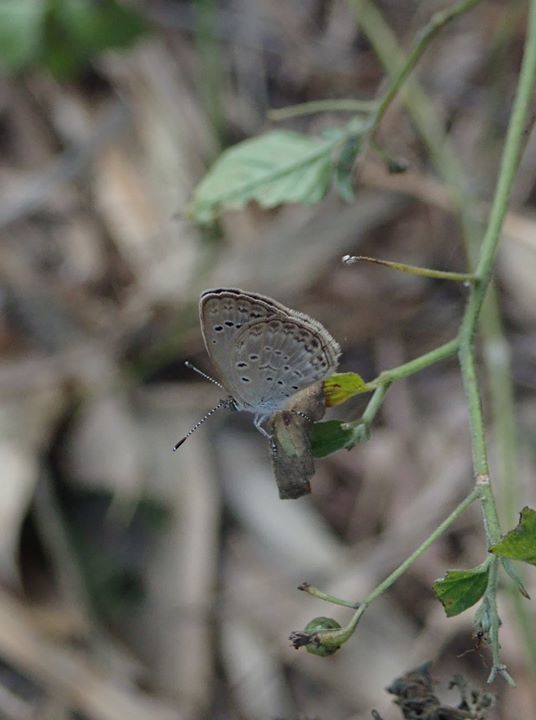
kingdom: Animalia
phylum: Arthropoda
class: Insecta
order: Lepidoptera
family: Lycaenidae
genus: Pseudozizeeria
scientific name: Pseudozizeeria maha
